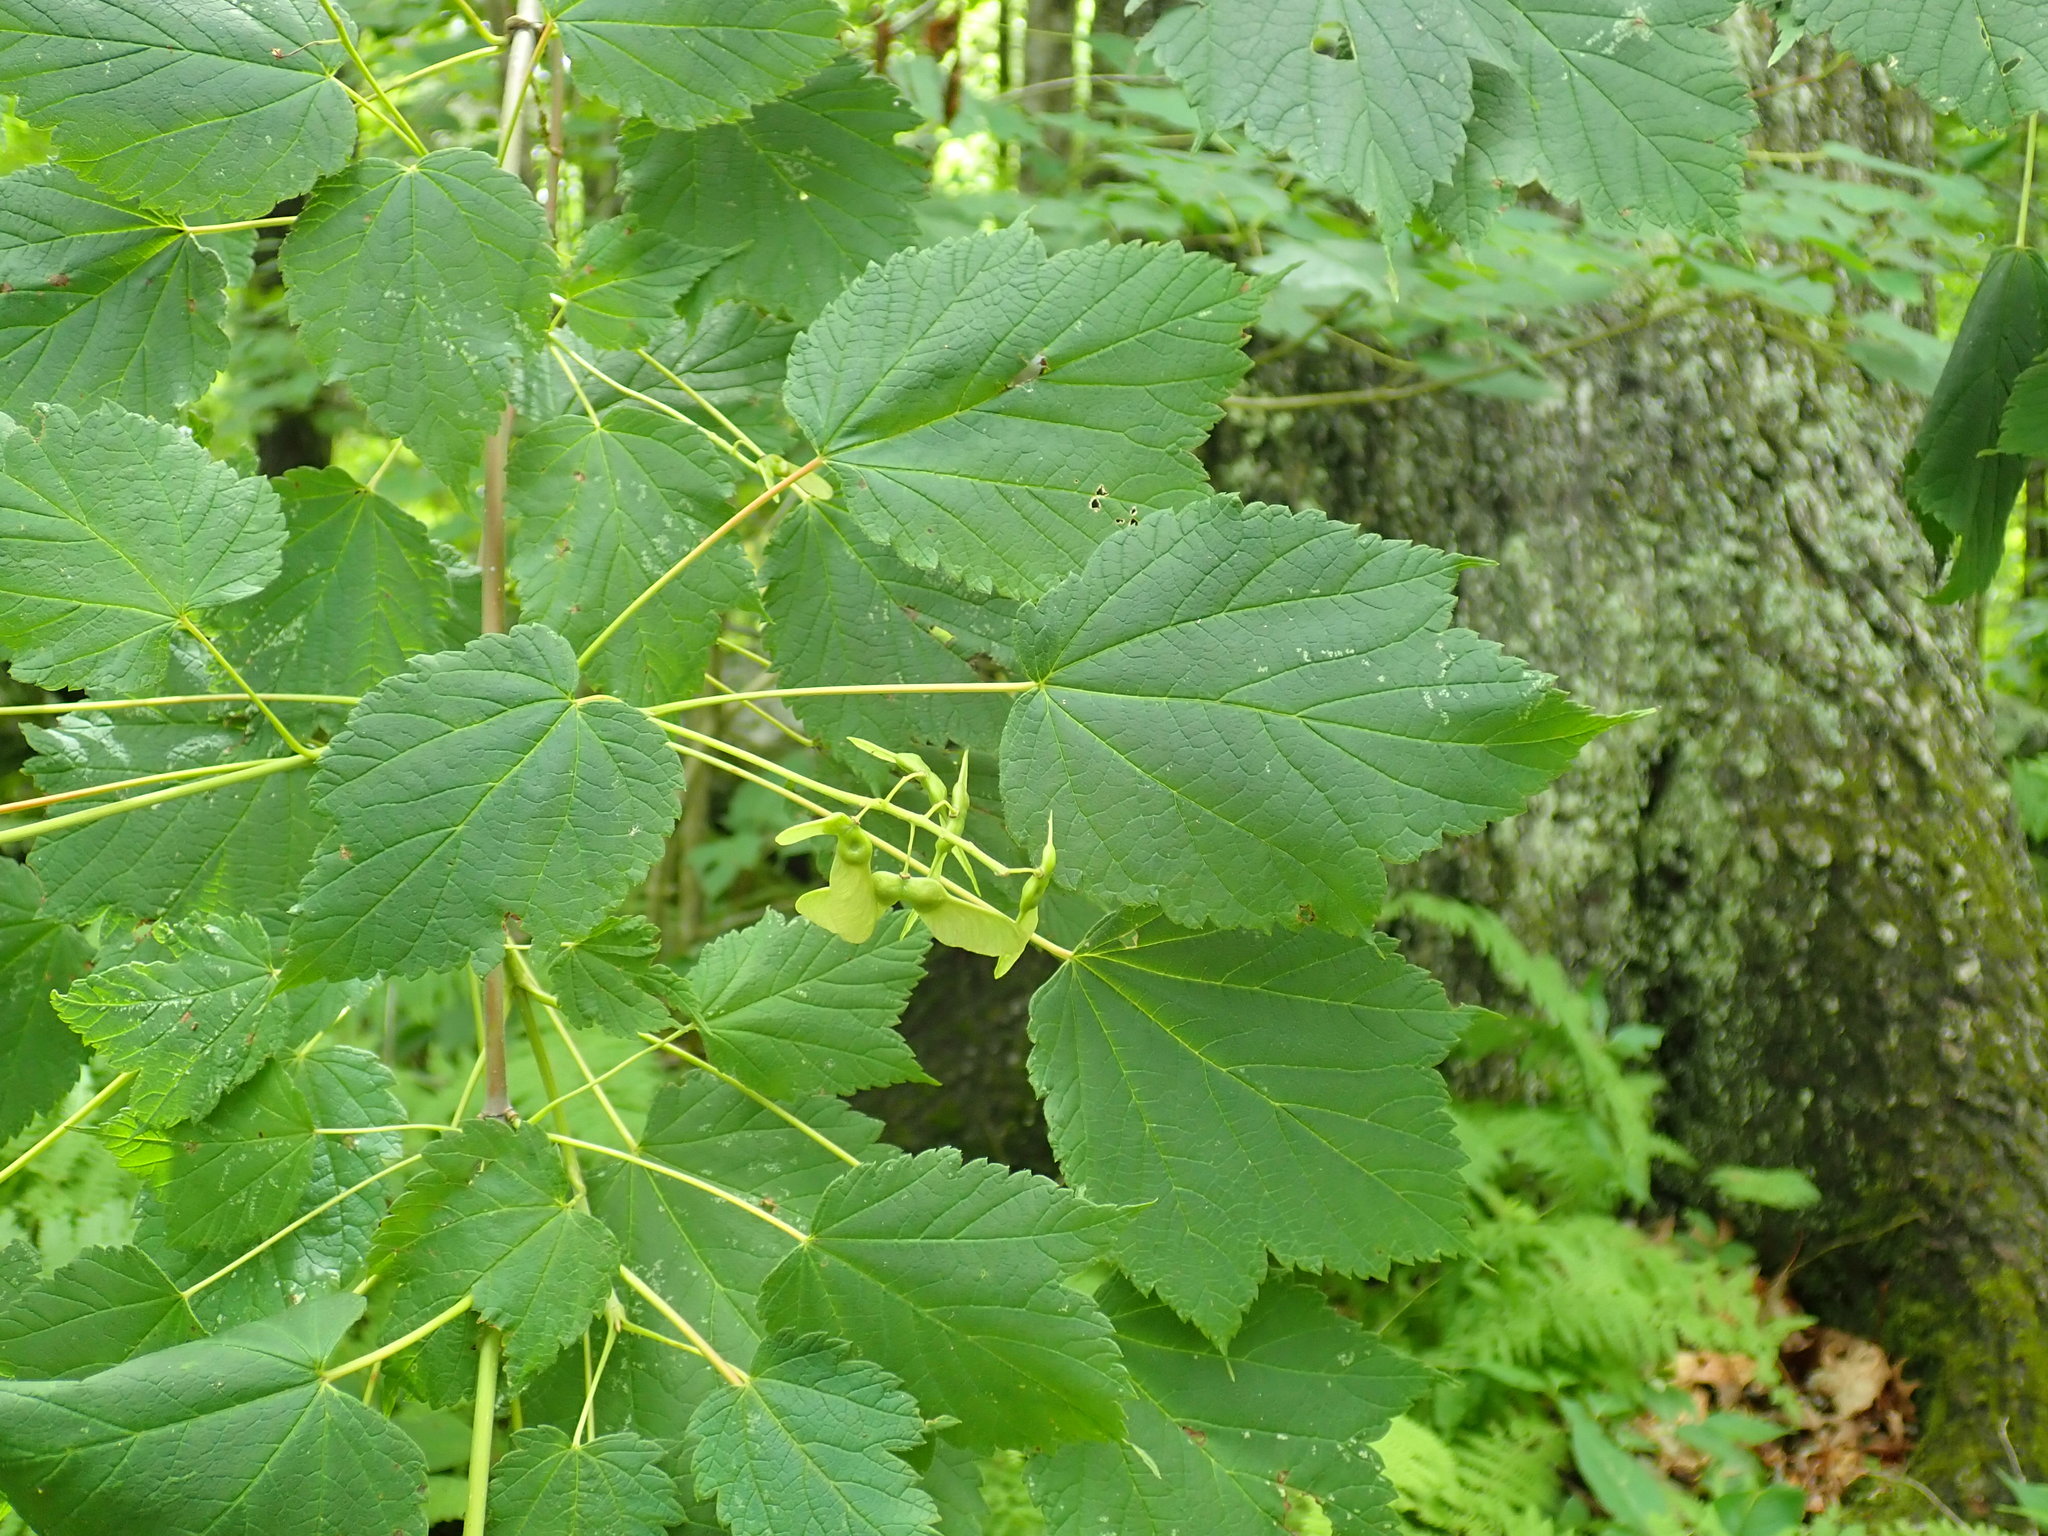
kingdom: Plantae
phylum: Tracheophyta
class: Magnoliopsida
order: Sapindales
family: Sapindaceae
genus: Acer
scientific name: Acer spicatum
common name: Mountain maple
